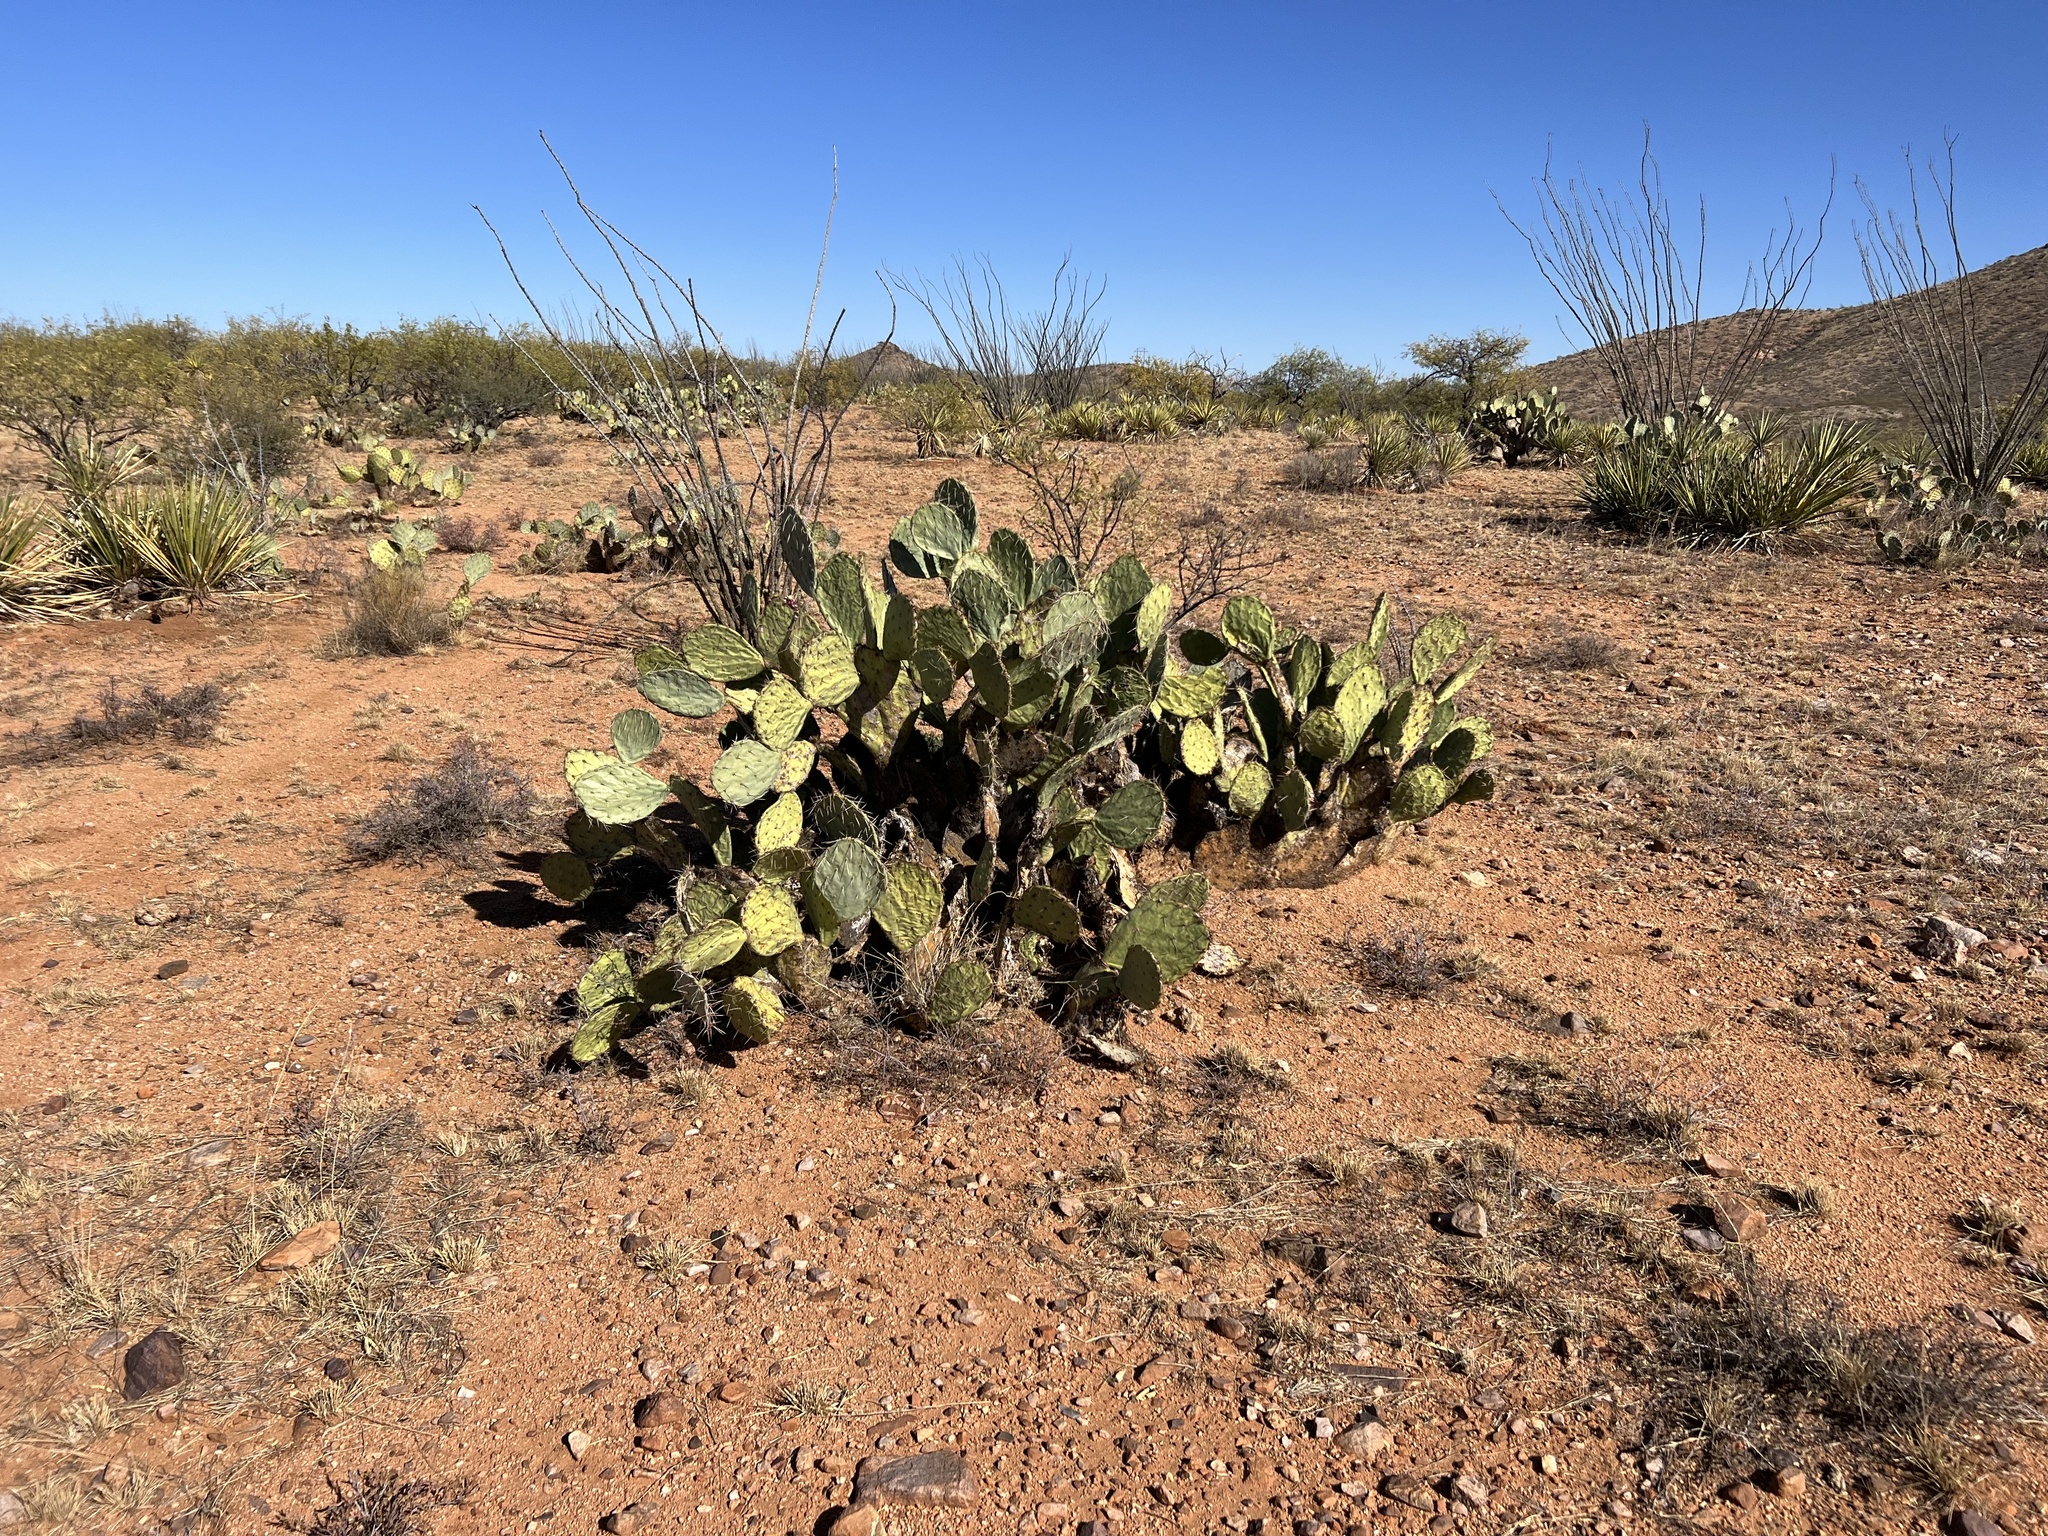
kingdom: Plantae
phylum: Tracheophyta
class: Magnoliopsida
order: Caryophyllales
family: Cactaceae
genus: Opuntia
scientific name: Opuntia engelmannii
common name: Cactus-apple
